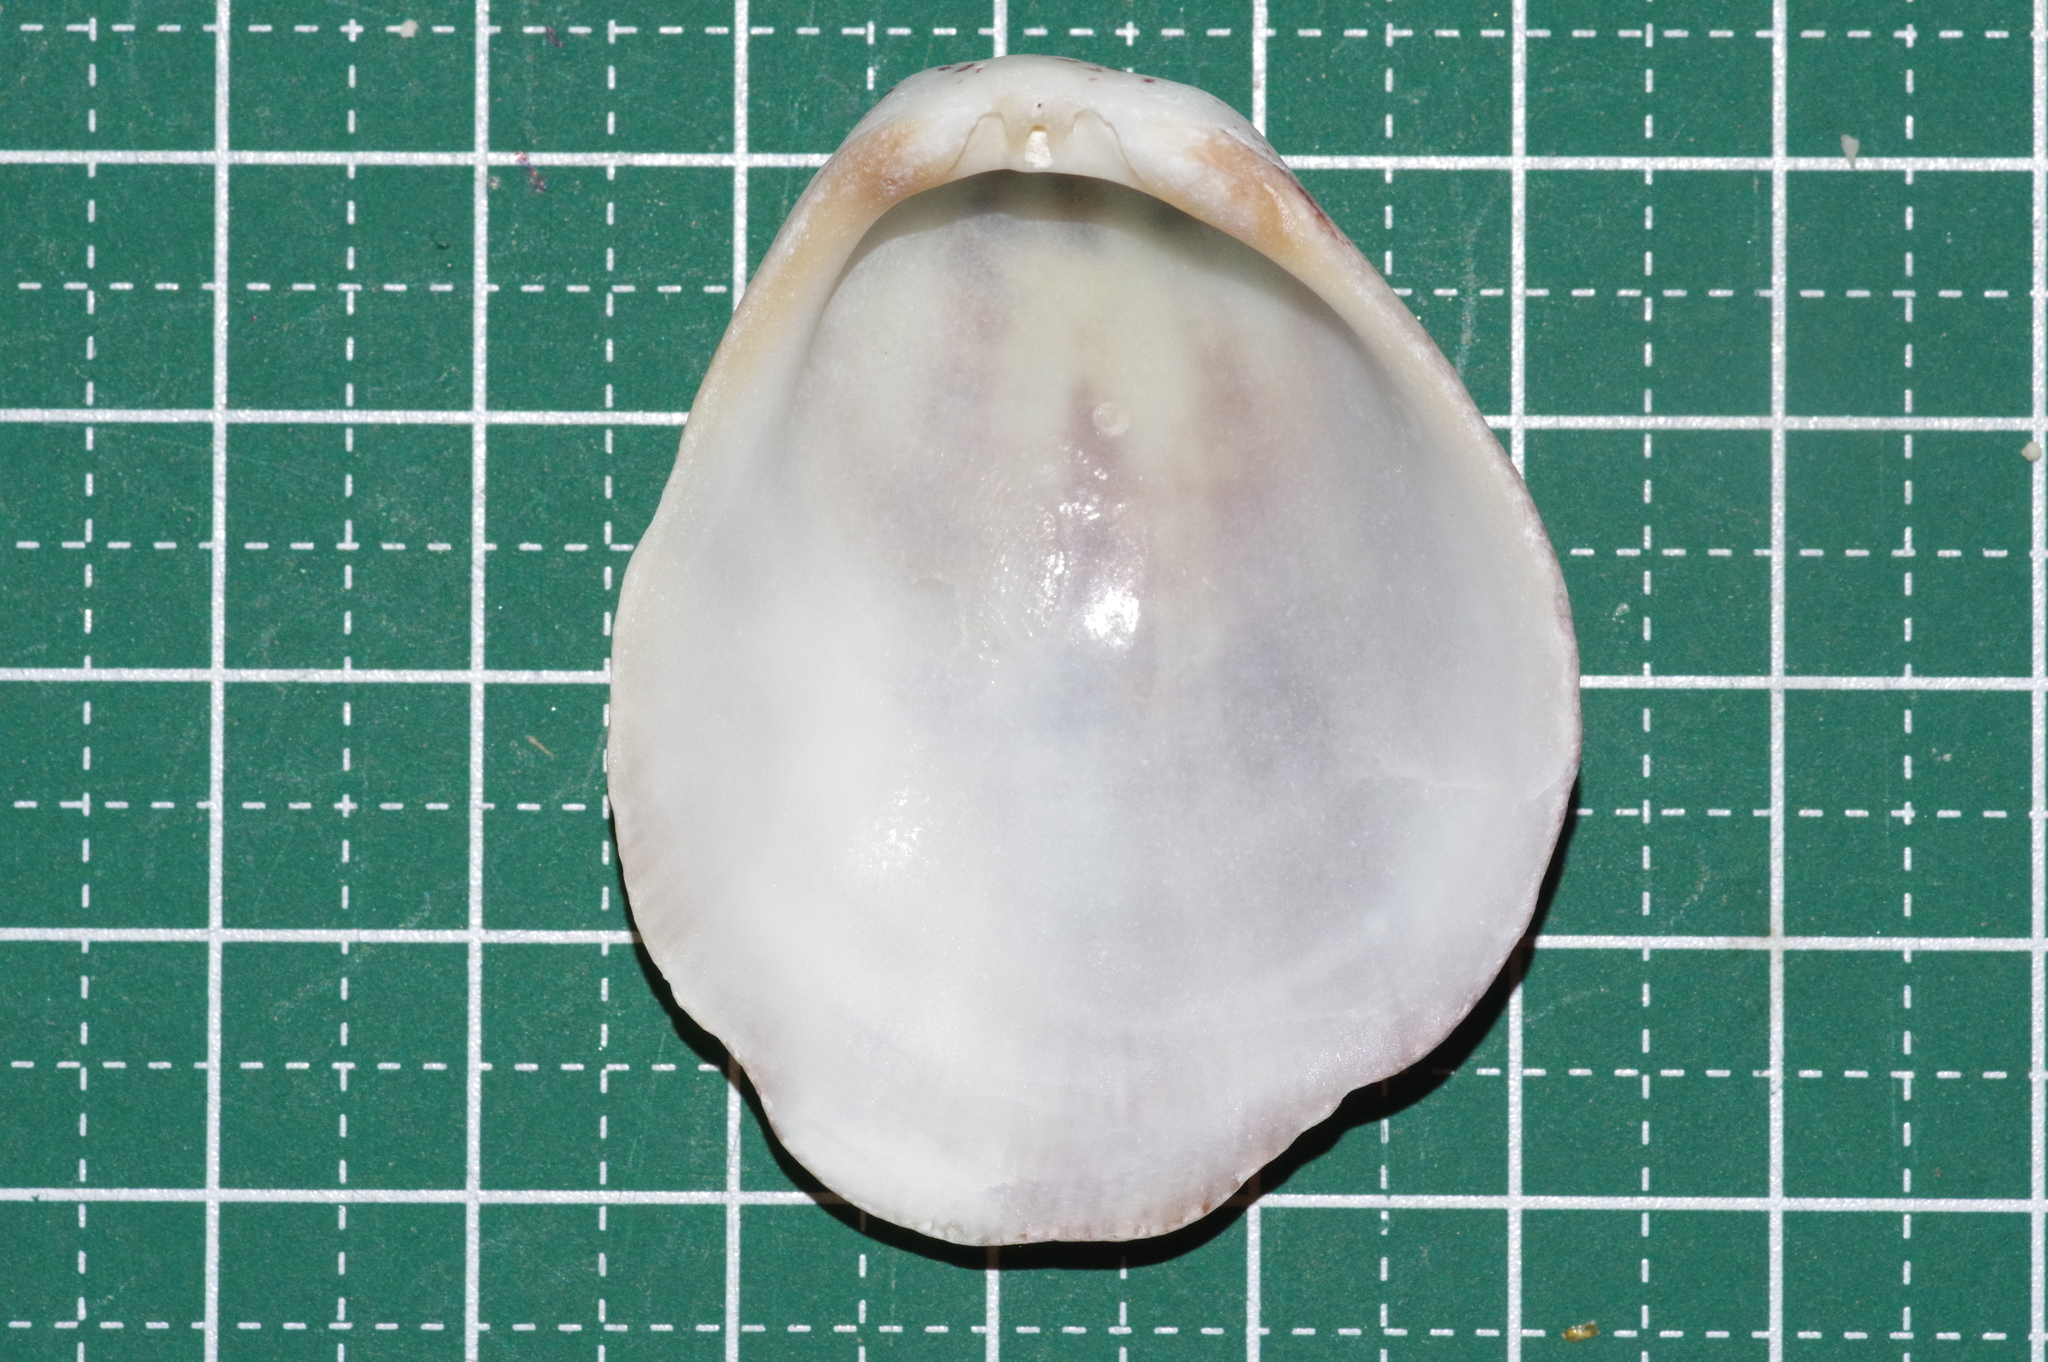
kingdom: Animalia
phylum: Mollusca
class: Bivalvia
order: Pectinida
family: Spondylidae
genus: Spondylus
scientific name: Spondylus squamosus
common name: Scaly thorny oyster
